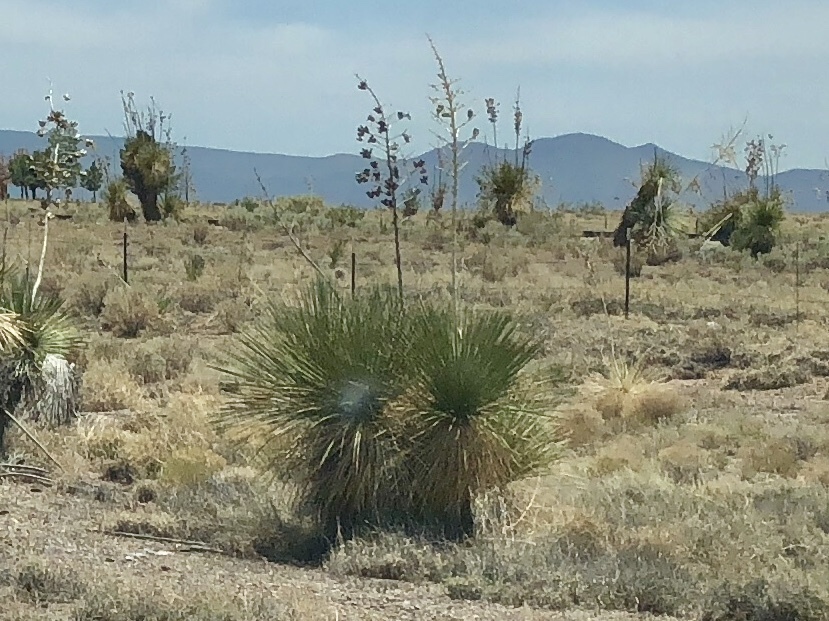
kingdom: Plantae
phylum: Tracheophyta
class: Liliopsida
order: Asparagales
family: Asparagaceae
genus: Yucca
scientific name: Yucca elata
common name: Palmella
